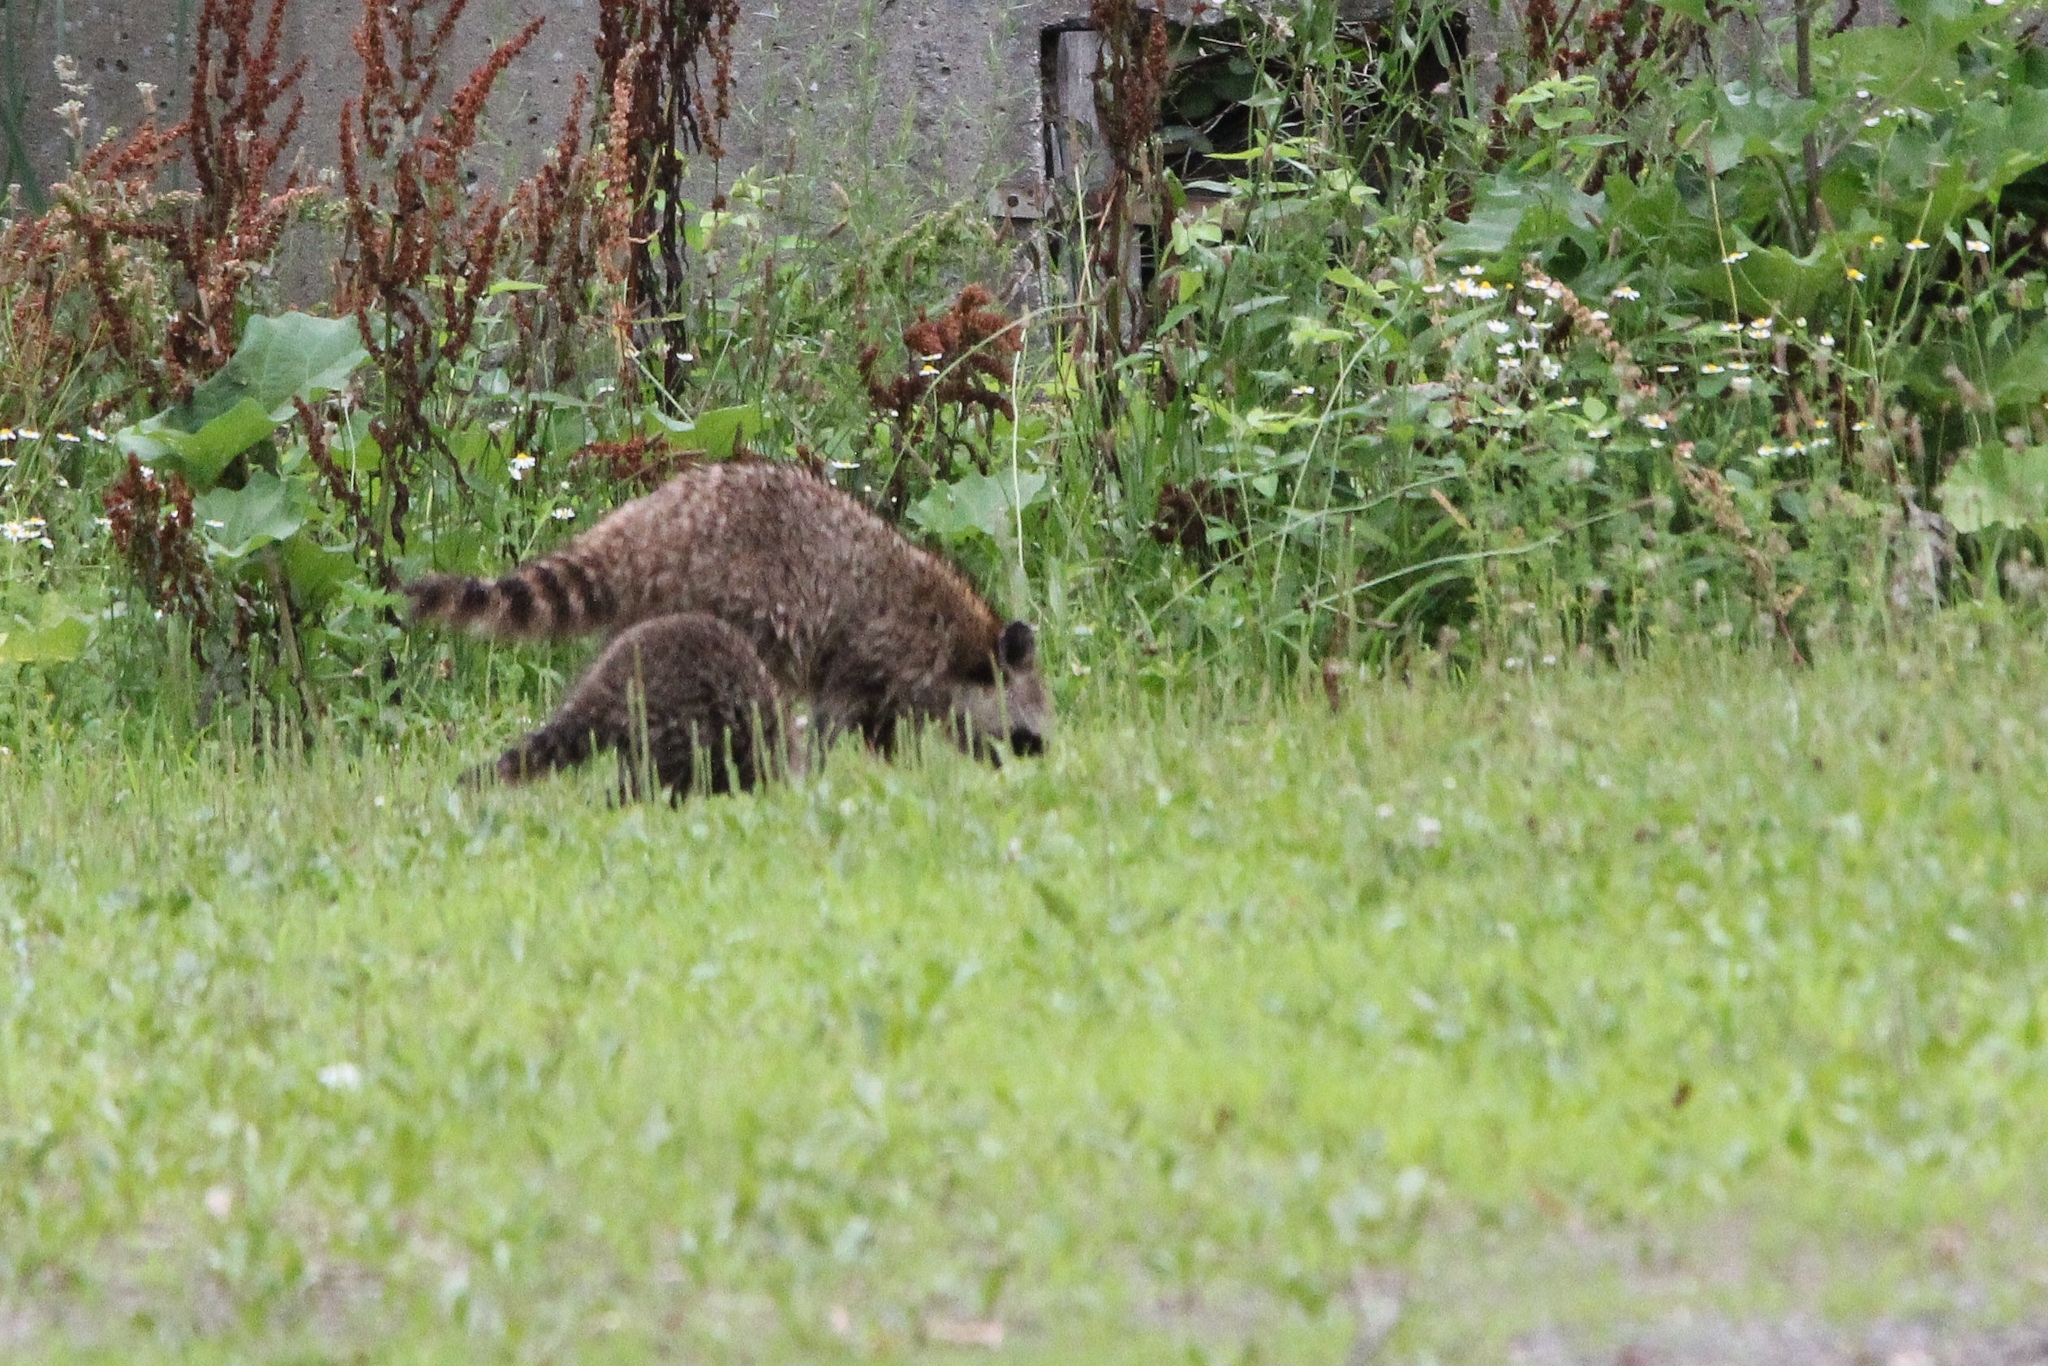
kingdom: Animalia
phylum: Chordata
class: Mammalia
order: Carnivora
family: Procyonidae
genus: Procyon
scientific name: Procyon lotor
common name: Raccoon
